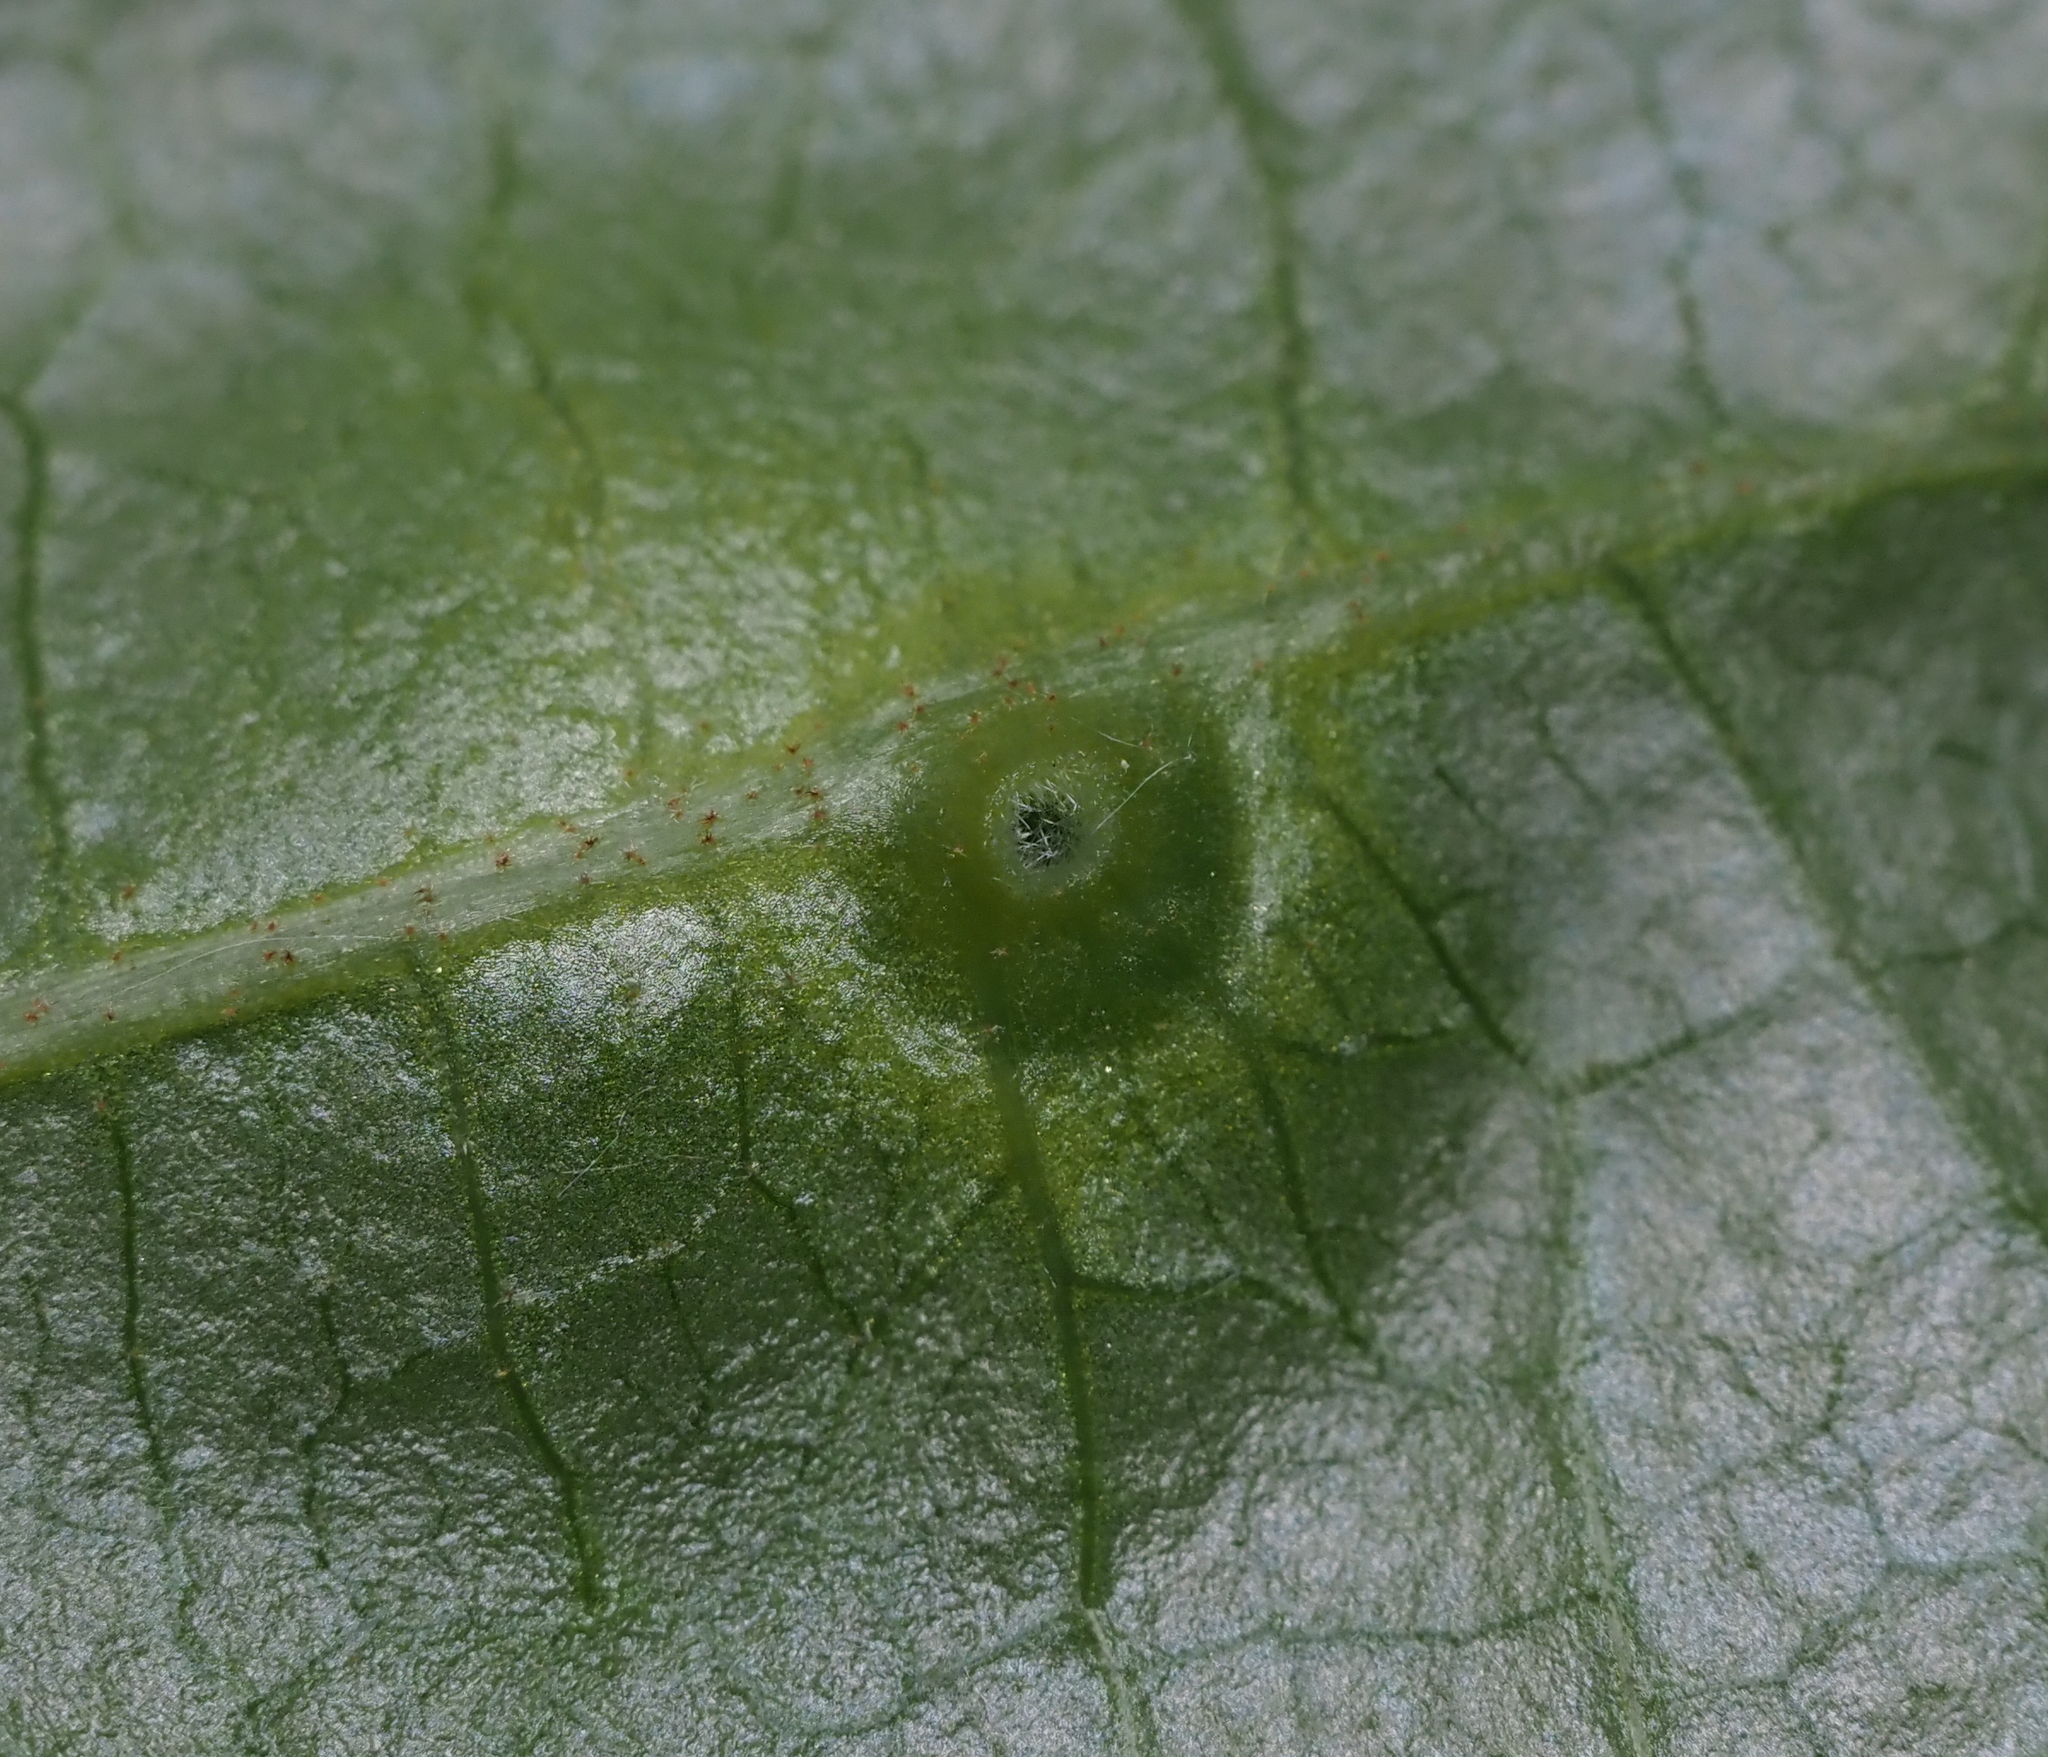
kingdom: Animalia
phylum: Arthropoda
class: Insecta
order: Hemiptera
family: Aphididae
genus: Hormaphis
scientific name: Hormaphis hamamelidis
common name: Witch-hazel cone gall aphid
